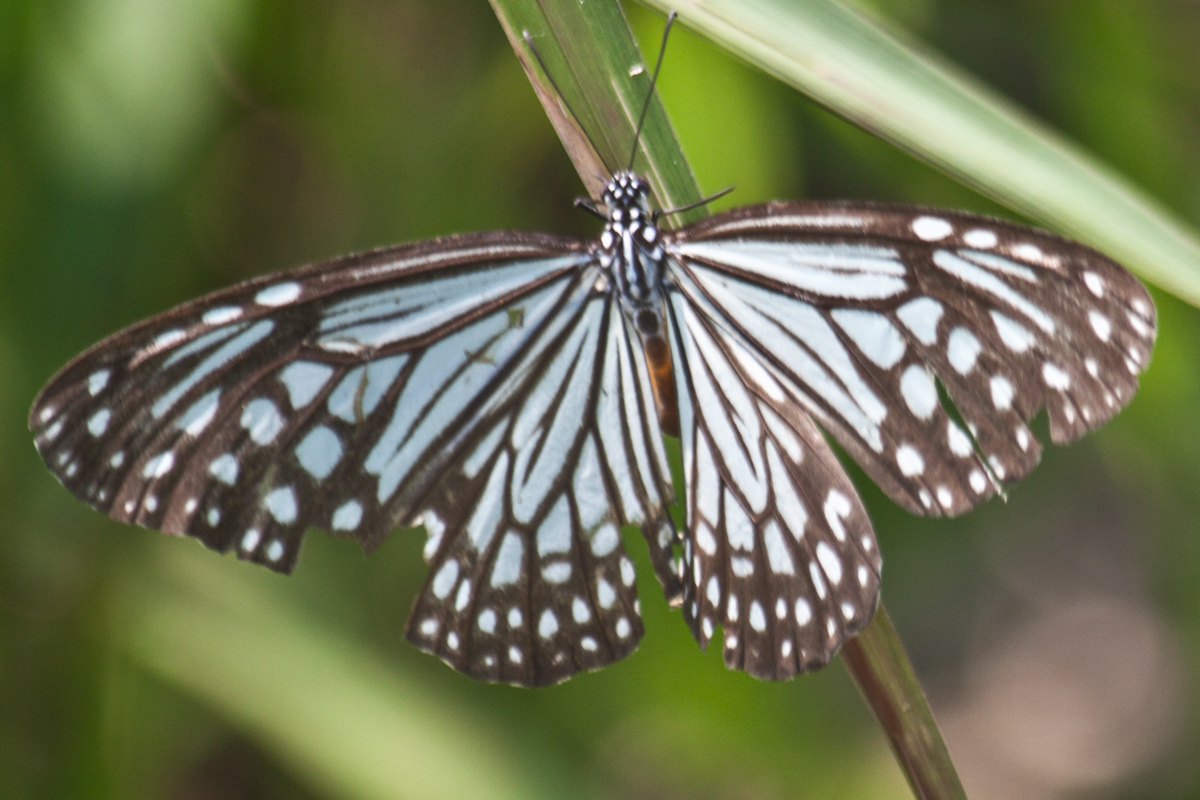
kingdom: Animalia
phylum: Arthropoda
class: Insecta
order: Lepidoptera
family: Nymphalidae
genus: Parantica
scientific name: Parantica aglea
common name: Glassy tiger
